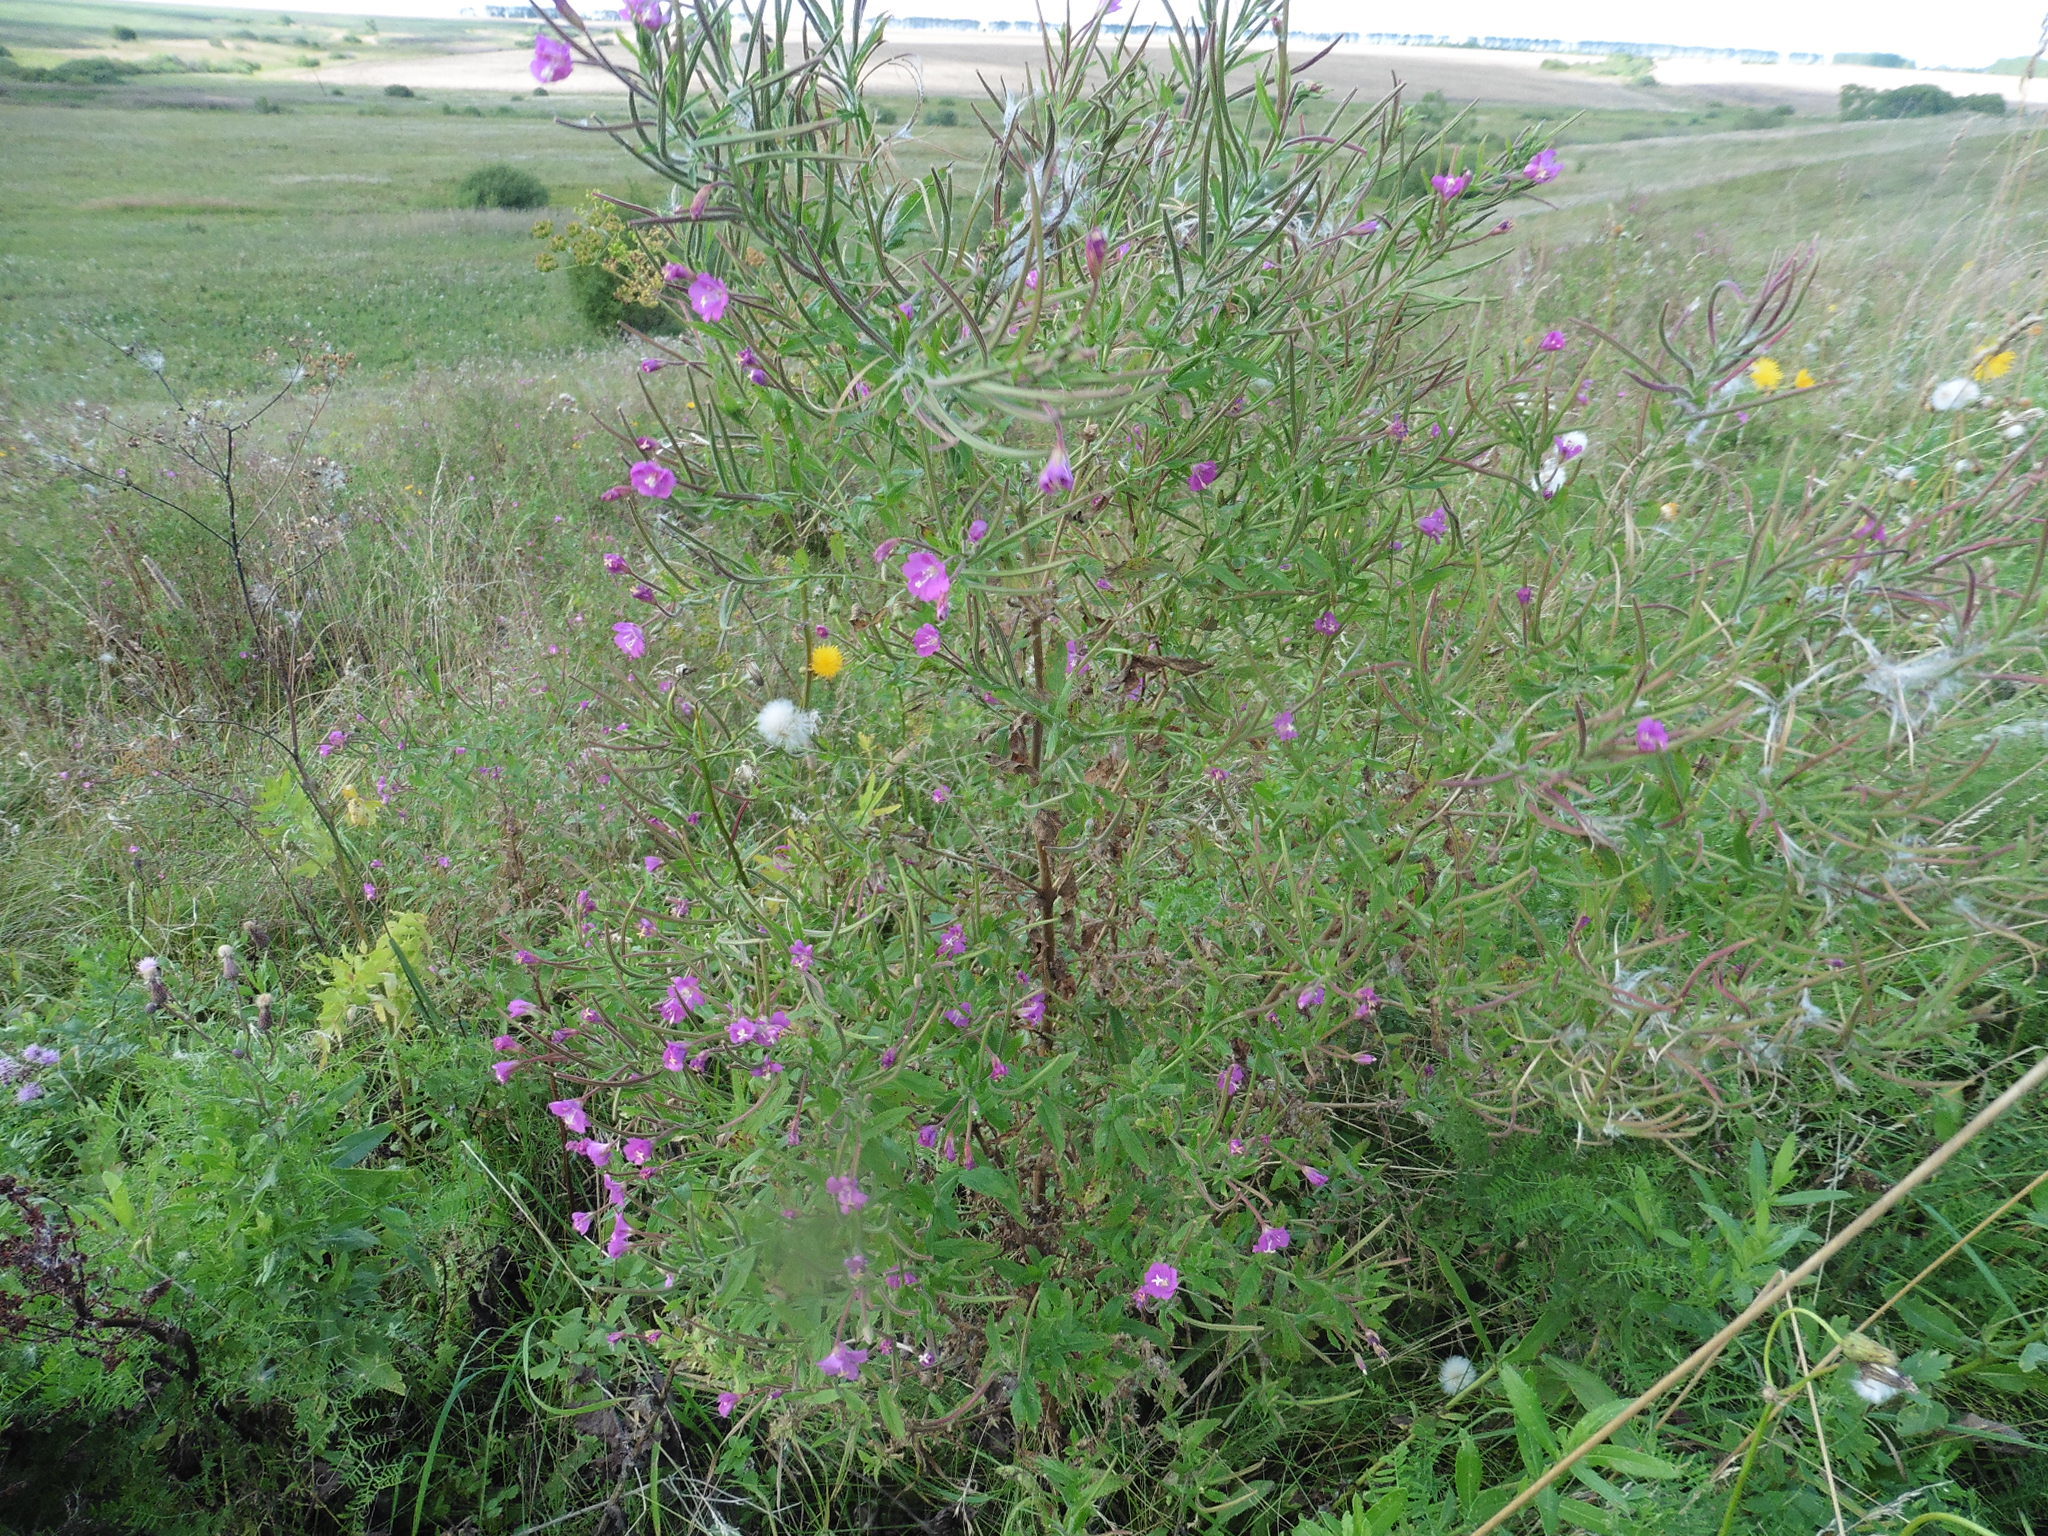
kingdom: Plantae
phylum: Tracheophyta
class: Magnoliopsida
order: Myrtales
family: Onagraceae
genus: Epilobium
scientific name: Epilobium hirsutum
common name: Great willowherb
